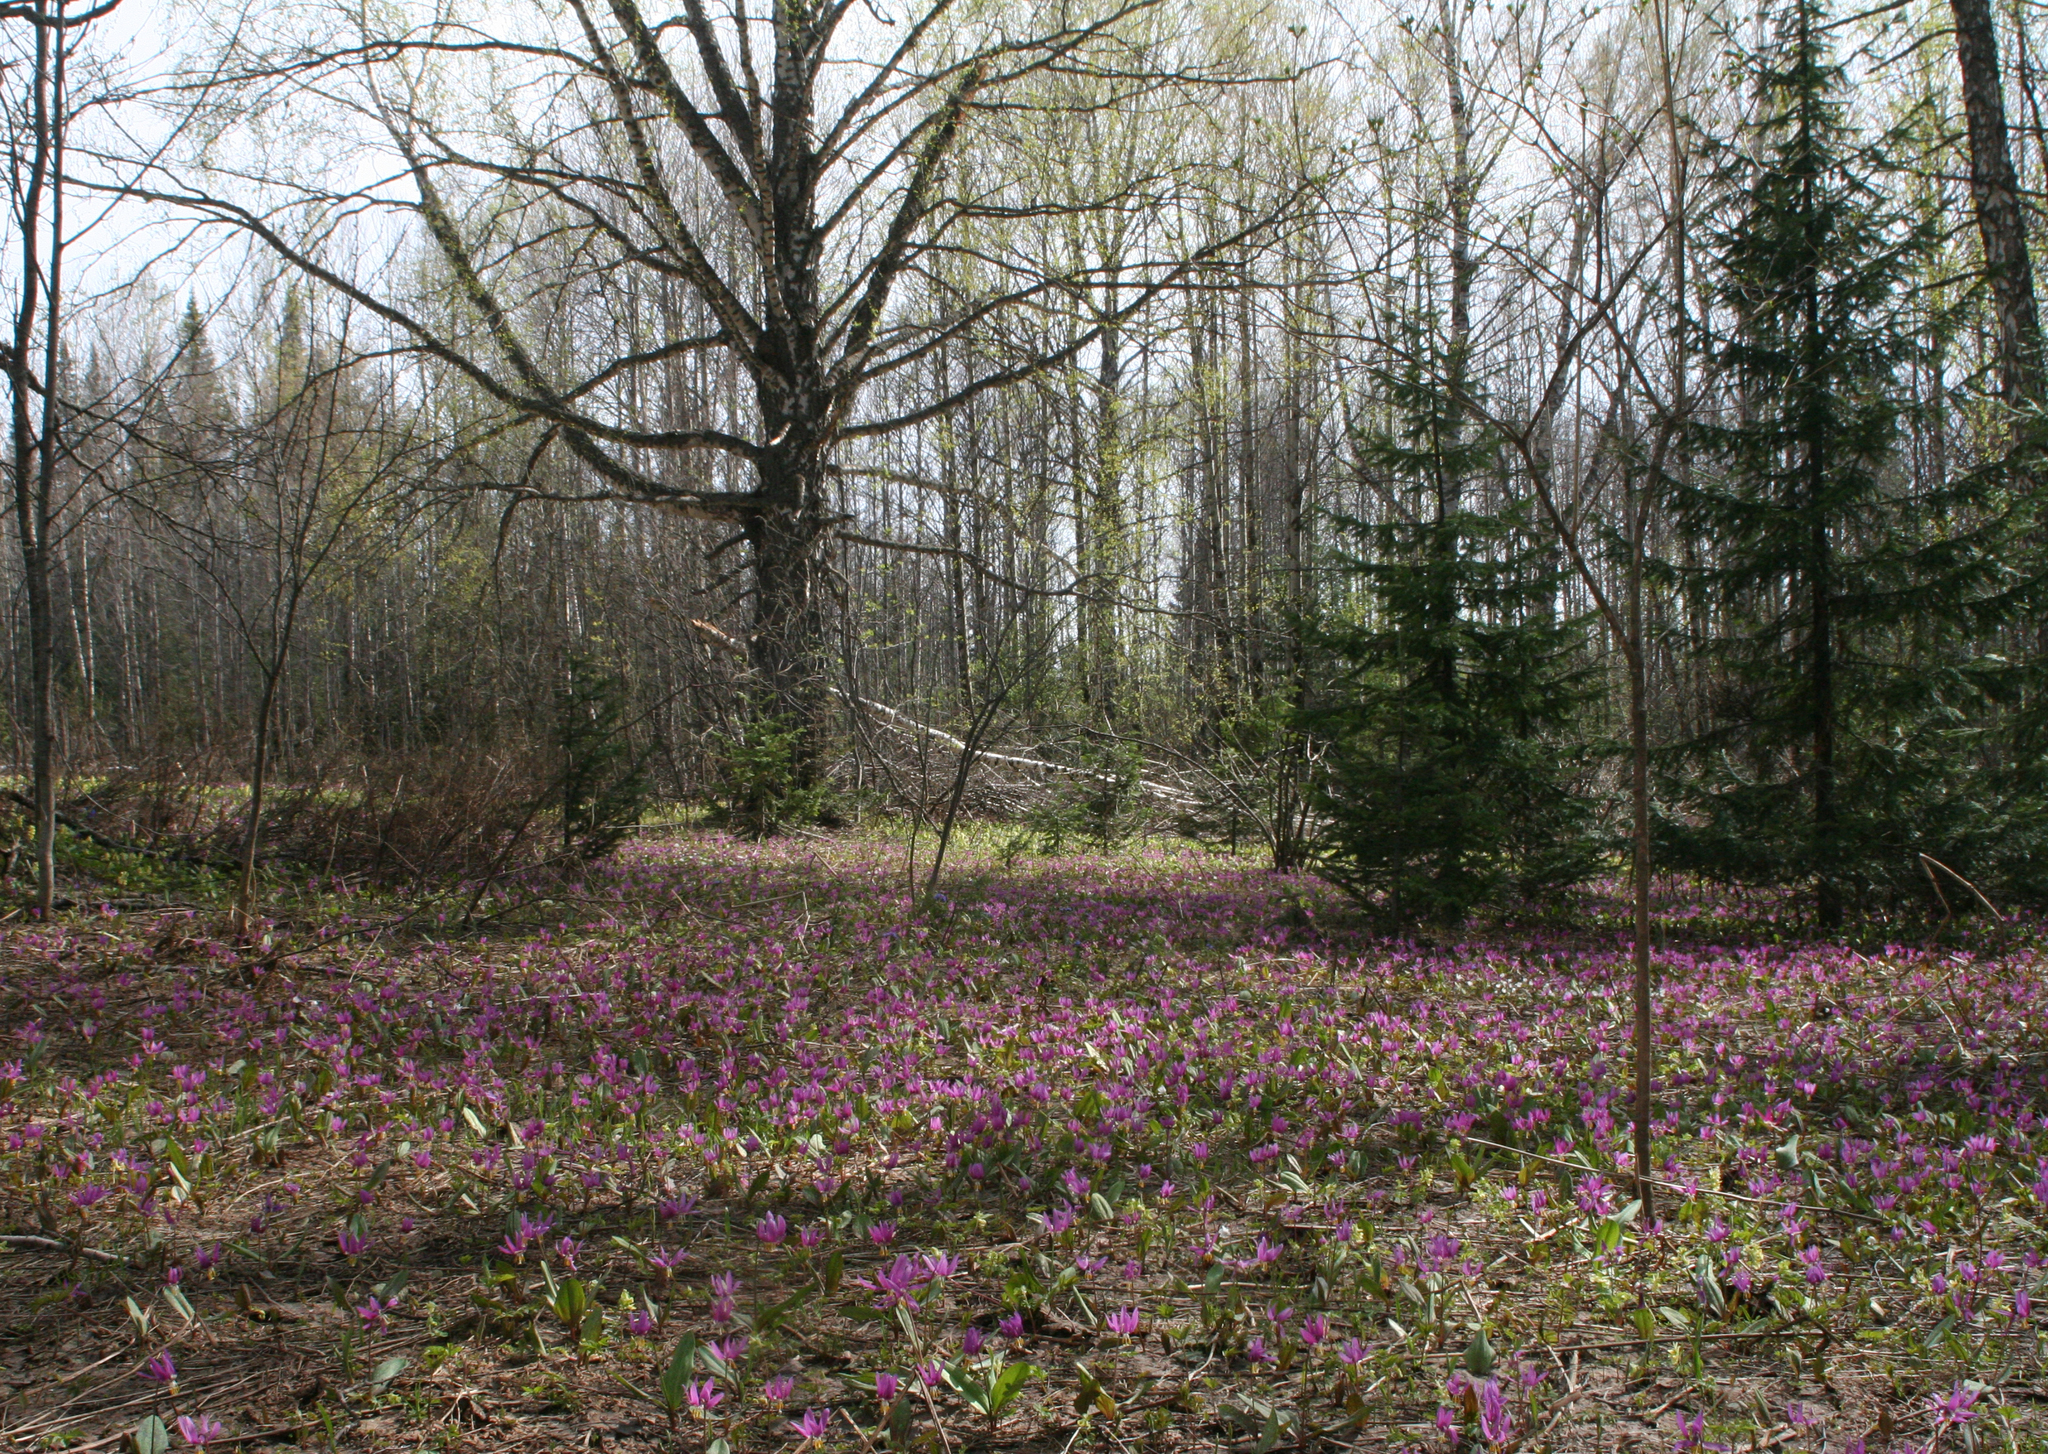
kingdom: Plantae
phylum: Tracheophyta
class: Pinopsida
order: Pinales
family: Pinaceae
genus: Abies
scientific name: Abies sibirica
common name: Siberian fir
